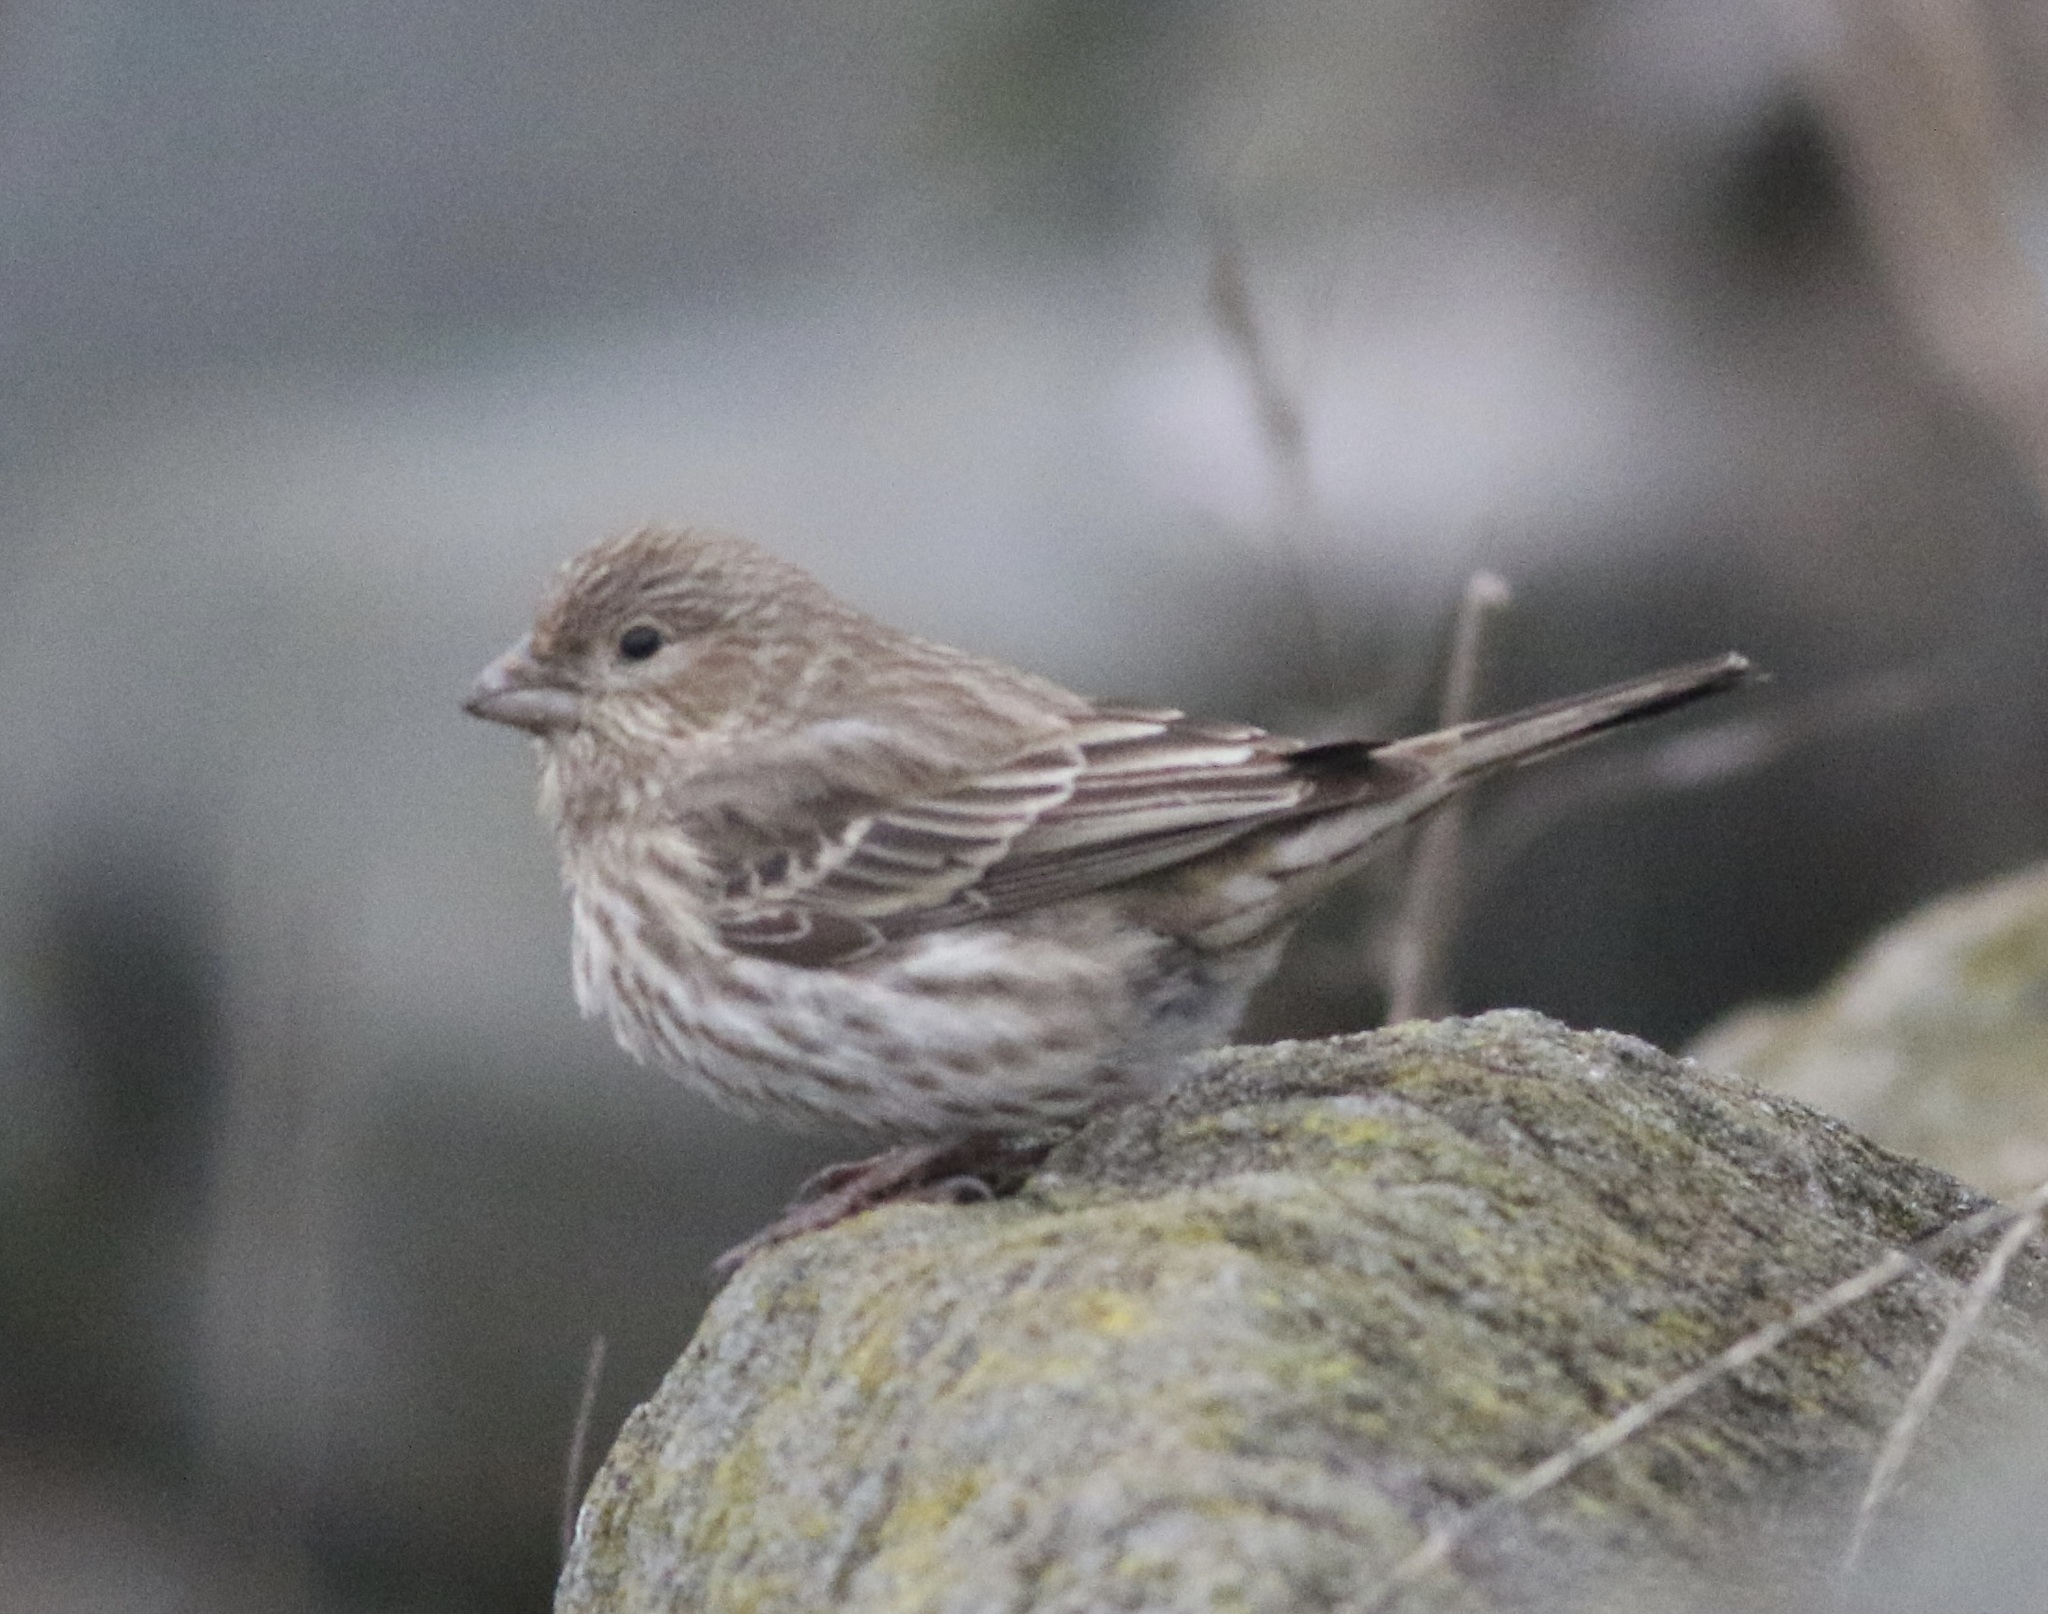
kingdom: Animalia
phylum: Chordata
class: Aves
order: Passeriformes
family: Fringillidae
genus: Haemorhous
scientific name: Haemorhous mexicanus
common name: House finch
